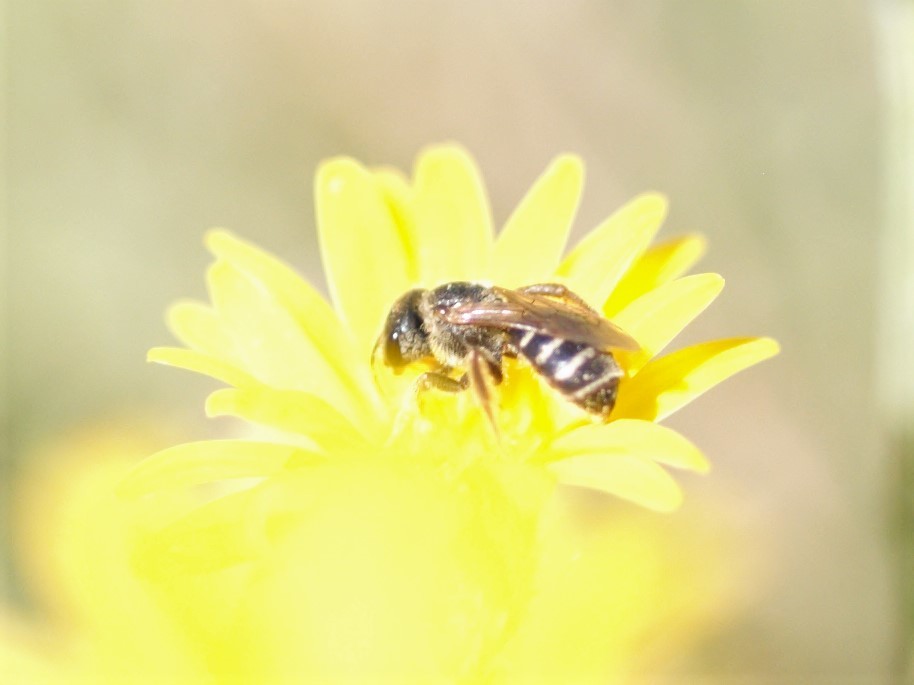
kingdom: Animalia
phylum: Arthropoda
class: Insecta
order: Hymenoptera
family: Halictidae
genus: Halictus
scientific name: Halictus ligatus
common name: Ligated furrow bee
